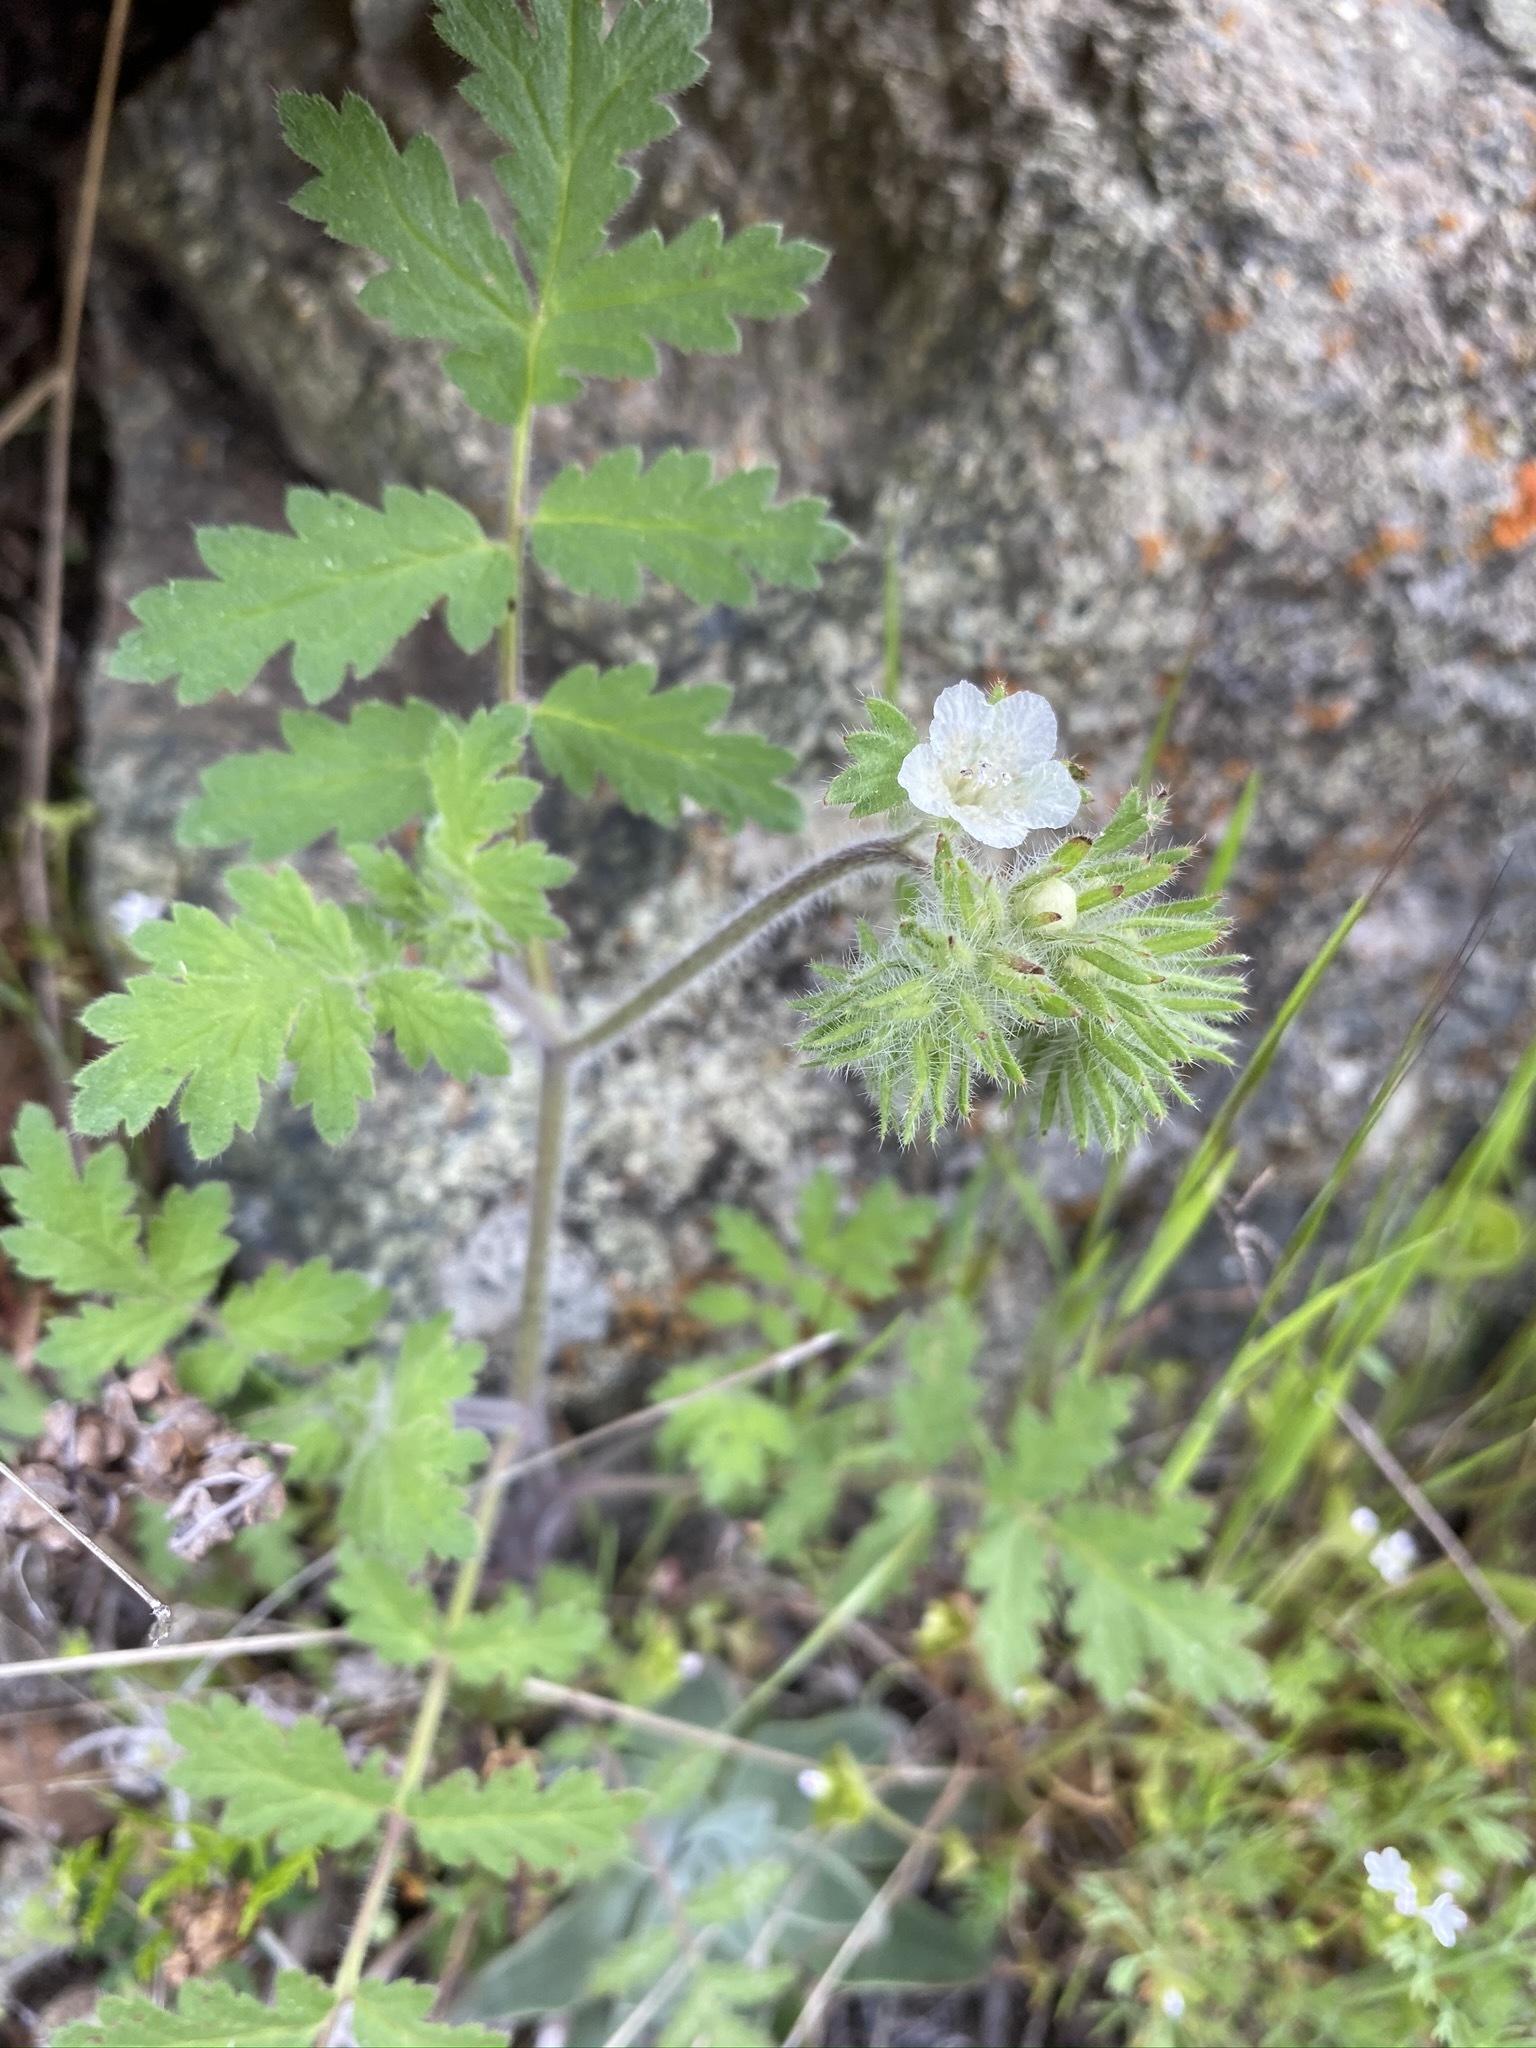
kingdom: Plantae
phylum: Tracheophyta
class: Magnoliopsida
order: Boraginales
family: Hydrophyllaceae
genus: Phacelia
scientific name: Phacelia cicutaria
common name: Caterpillar phacelia
